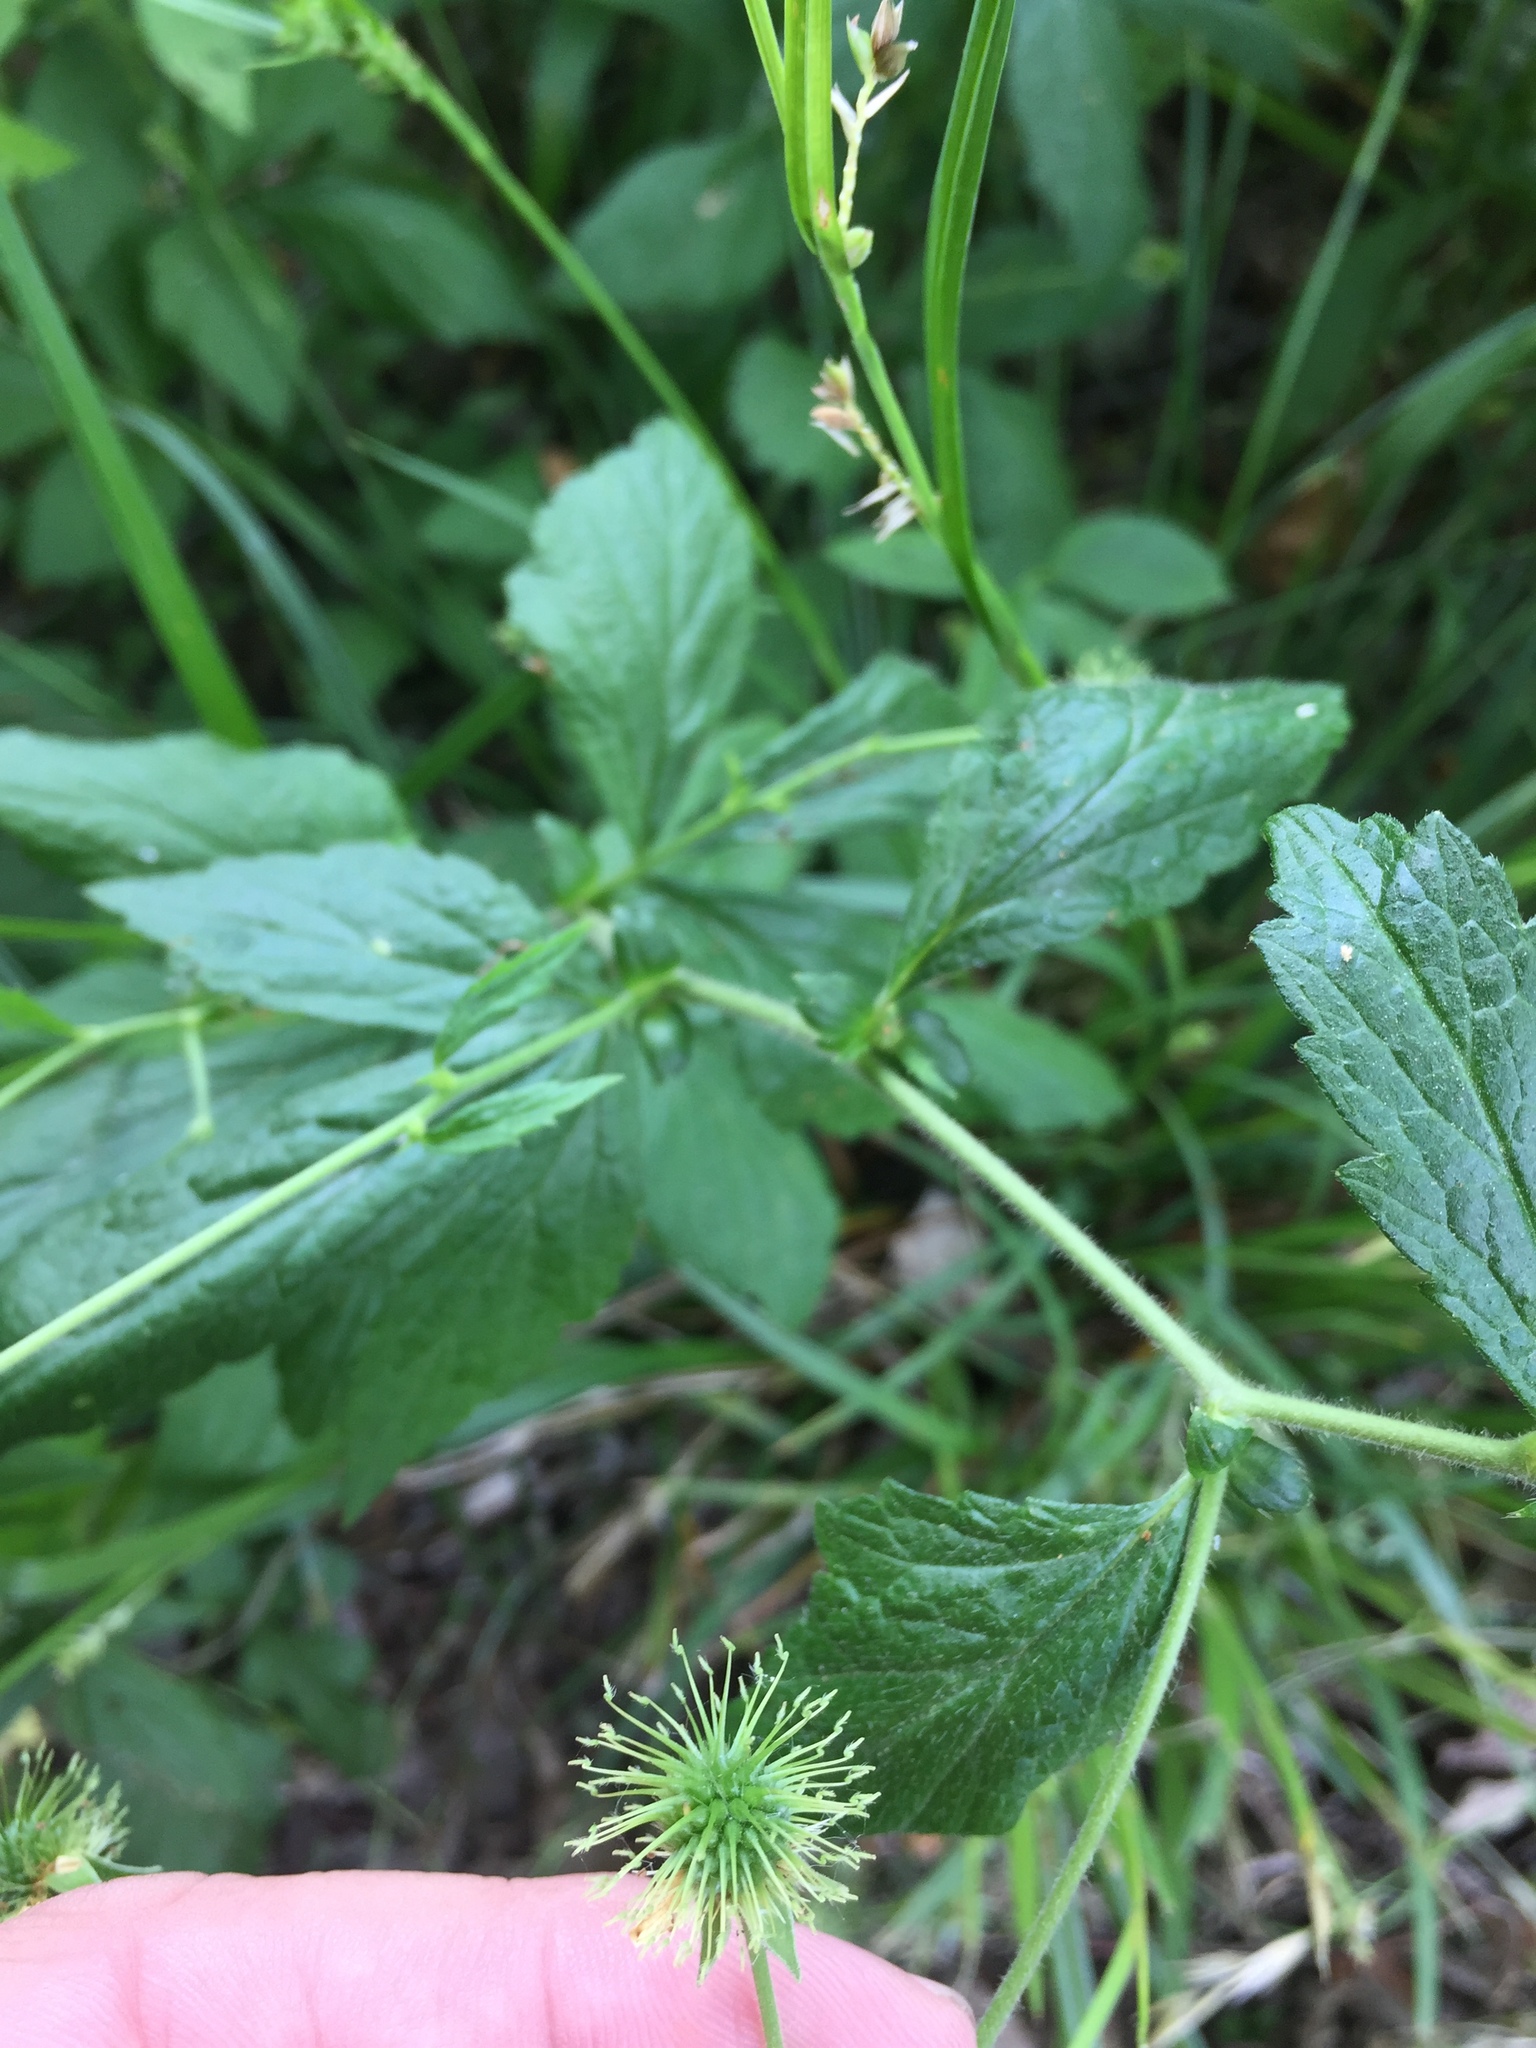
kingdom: Plantae
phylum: Tracheophyta
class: Magnoliopsida
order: Rosales
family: Rosaceae
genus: Geum
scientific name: Geum canadense
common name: White avens
